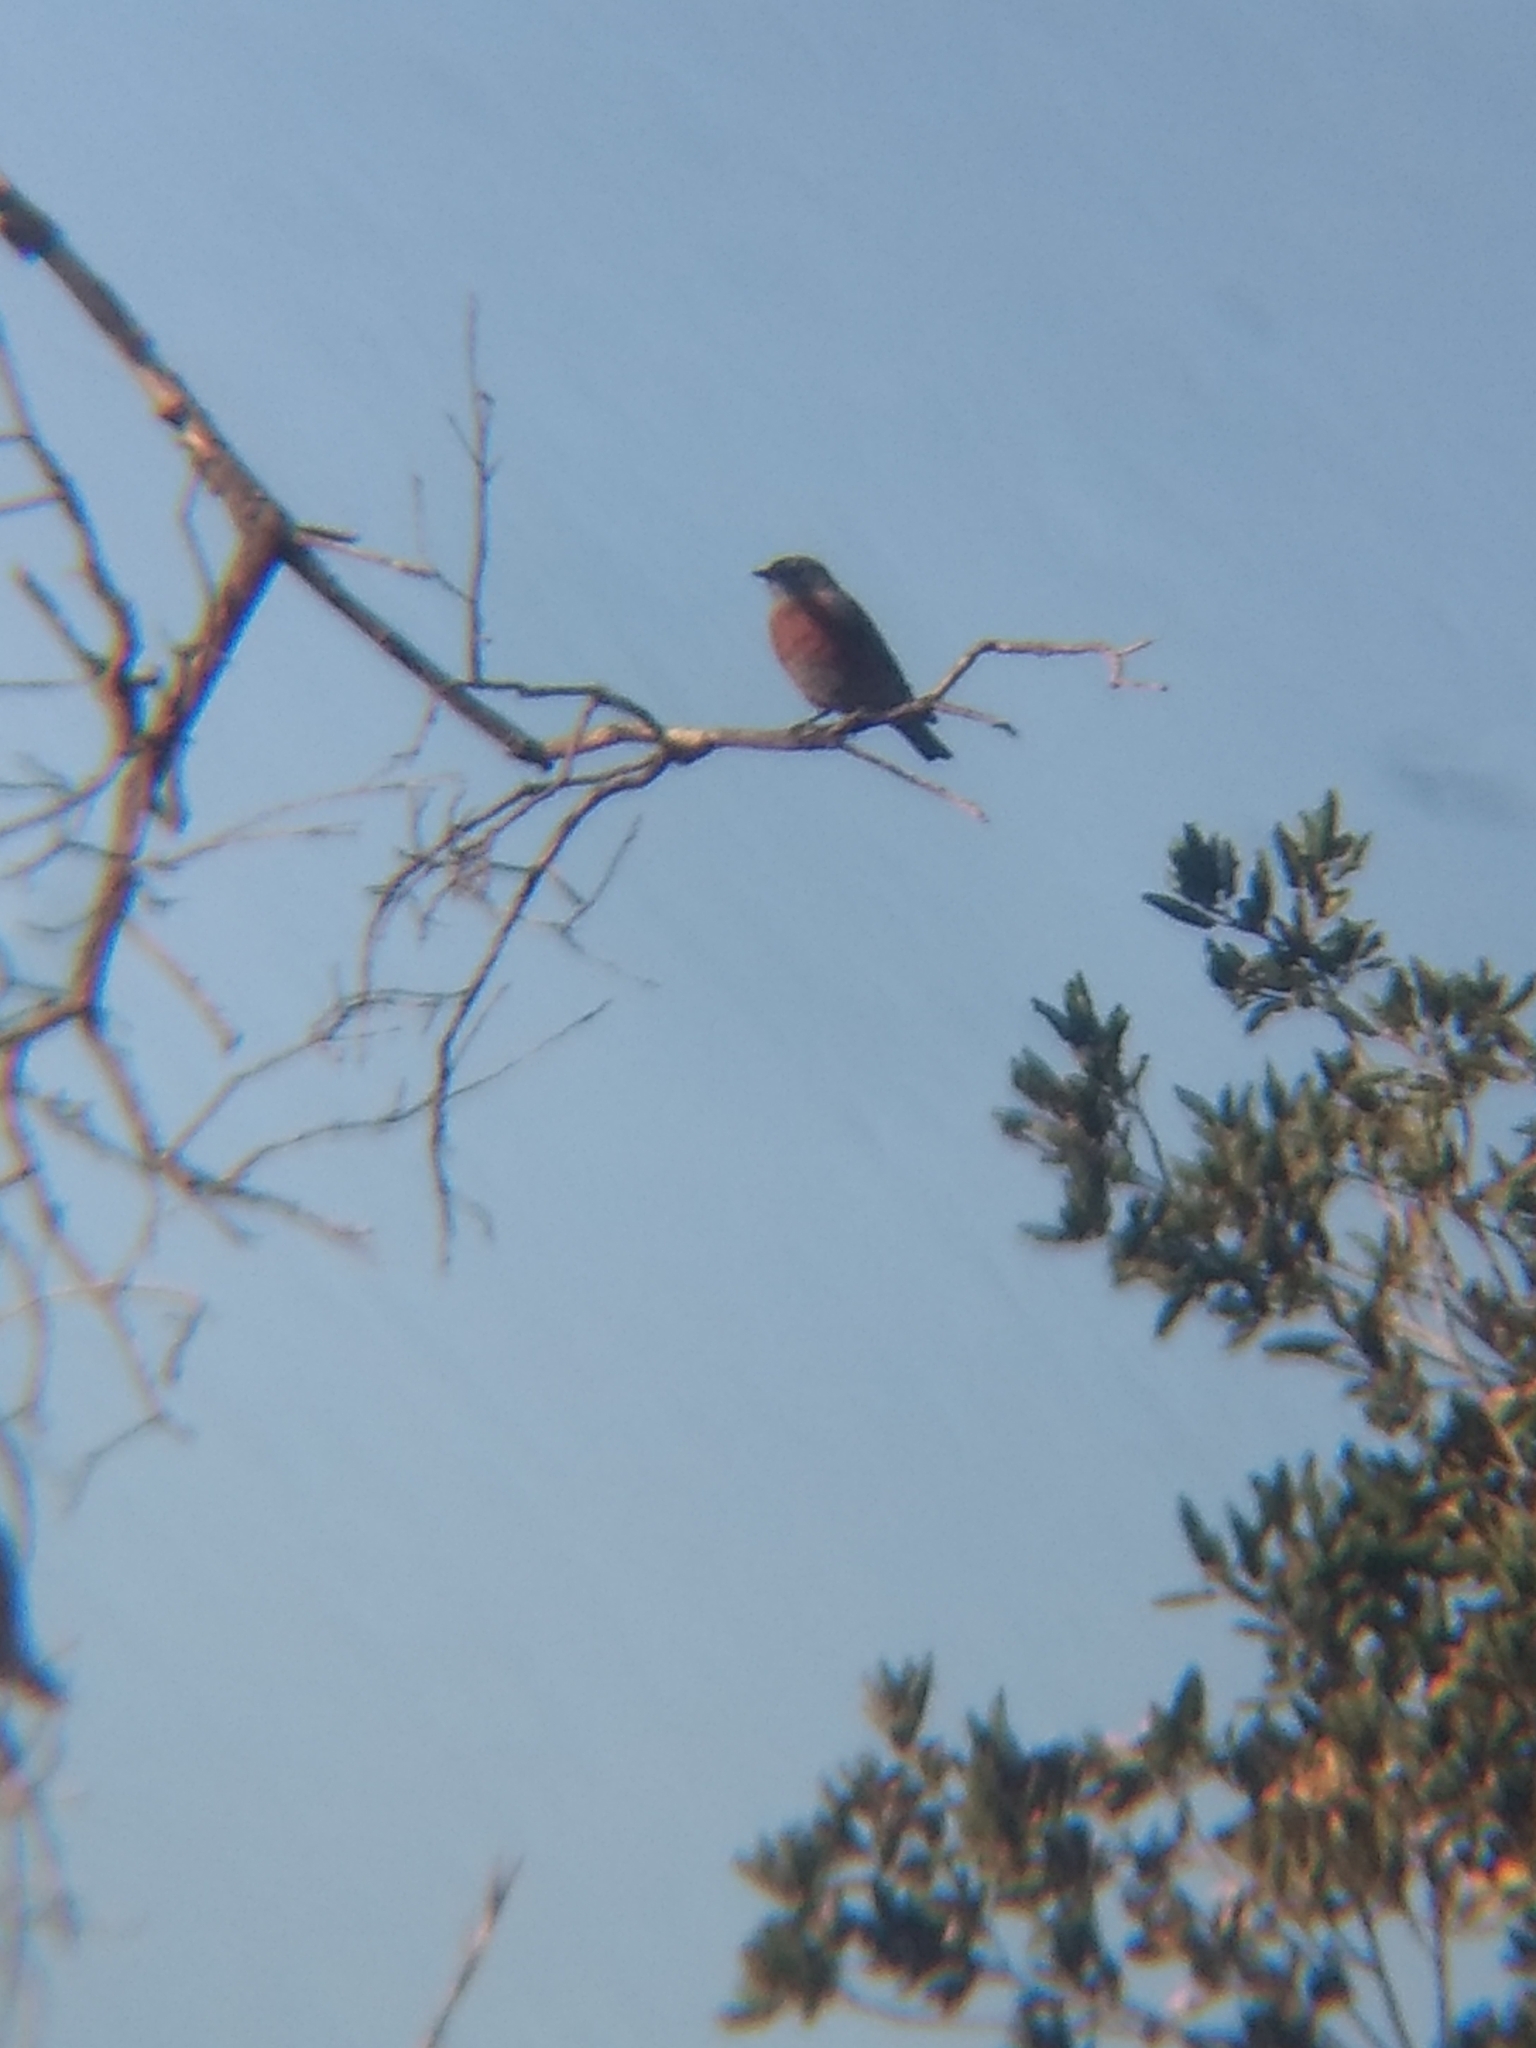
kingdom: Animalia
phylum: Chordata
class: Aves
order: Passeriformes
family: Turdidae
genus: Sialia
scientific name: Sialia mexicana
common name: Western bluebird
